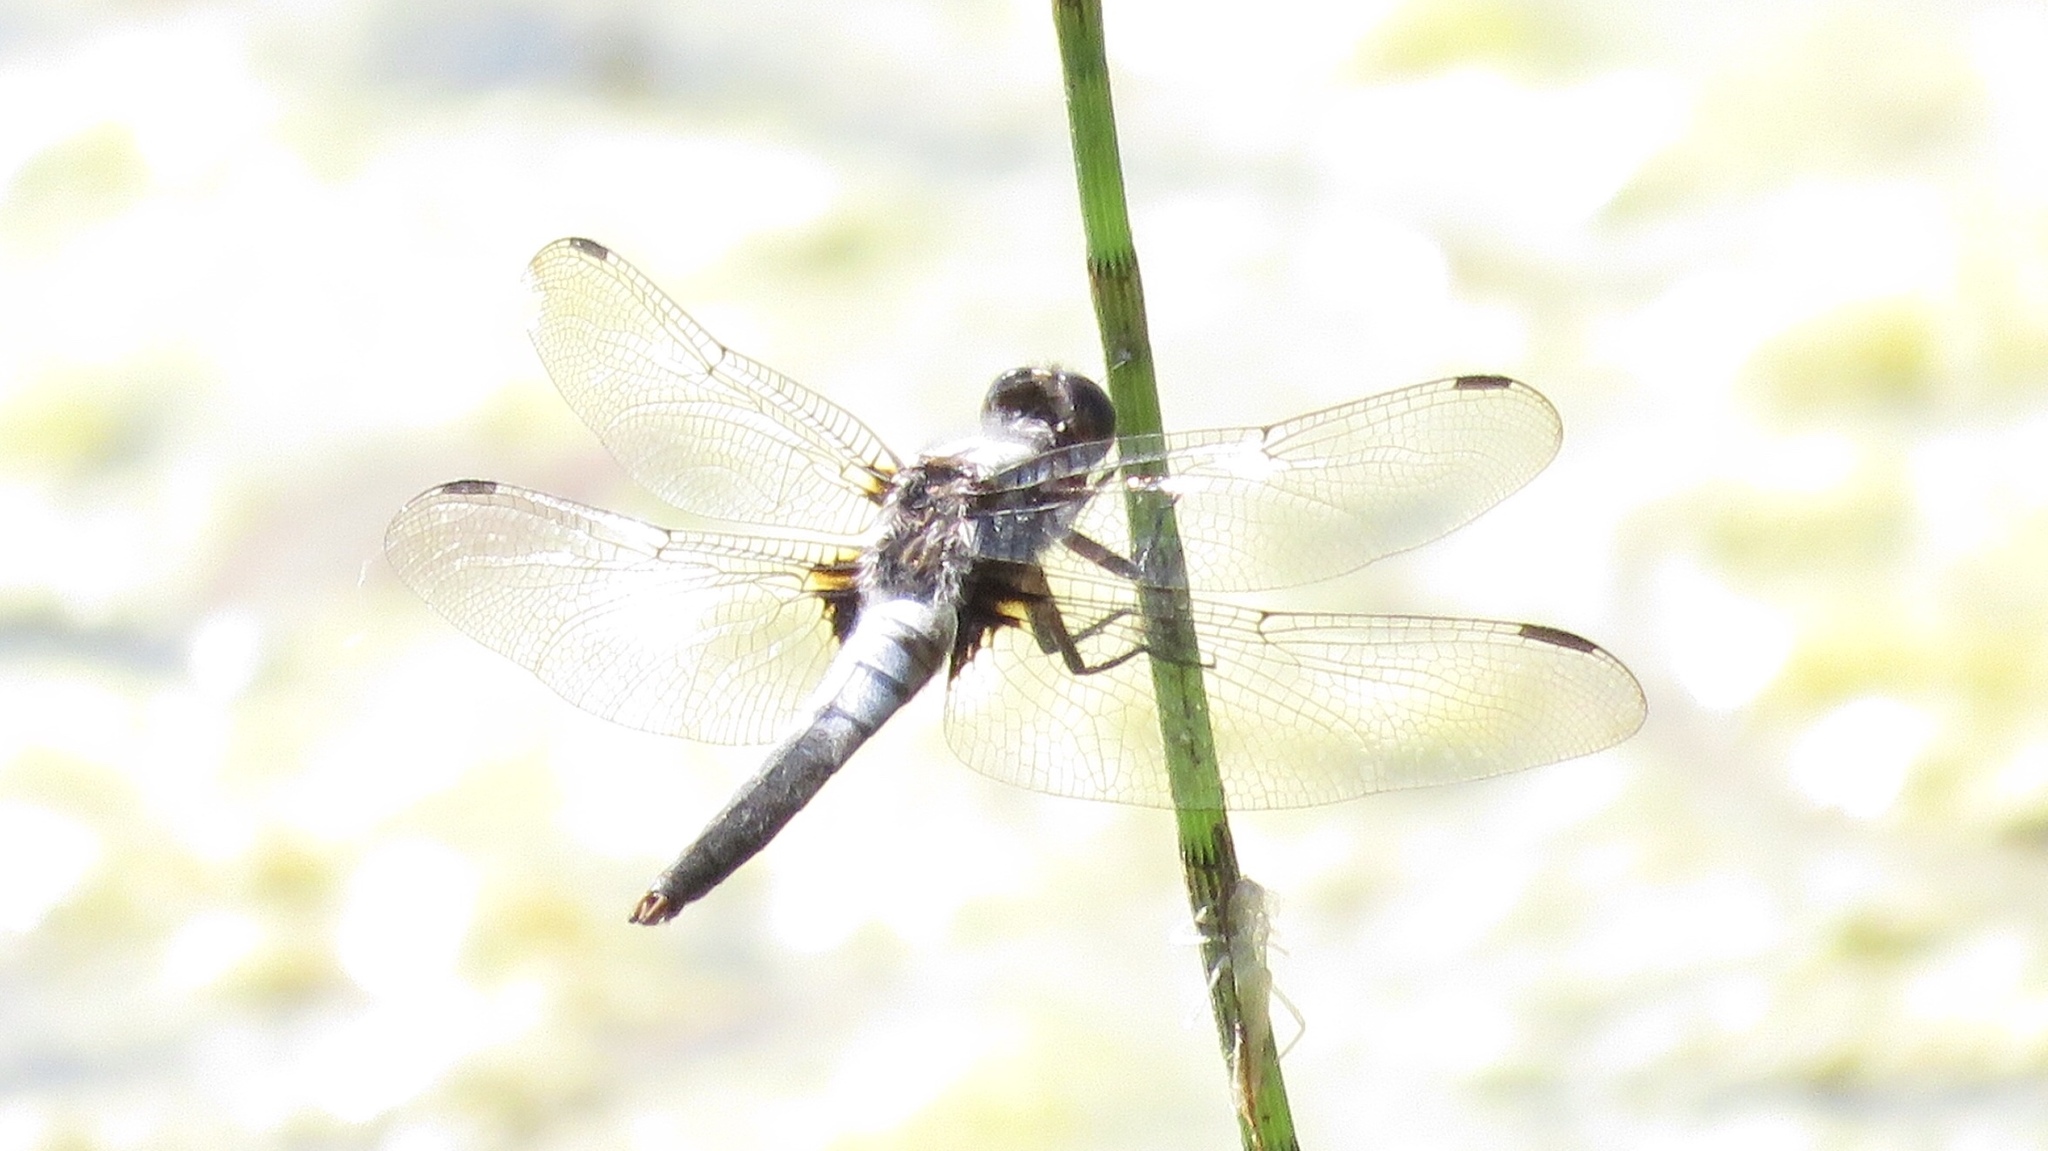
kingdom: Animalia
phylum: Arthropoda
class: Insecta
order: Odonata
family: Libellulidae
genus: Ladona
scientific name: Ladona julia
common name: Chalk-fronted corporal
